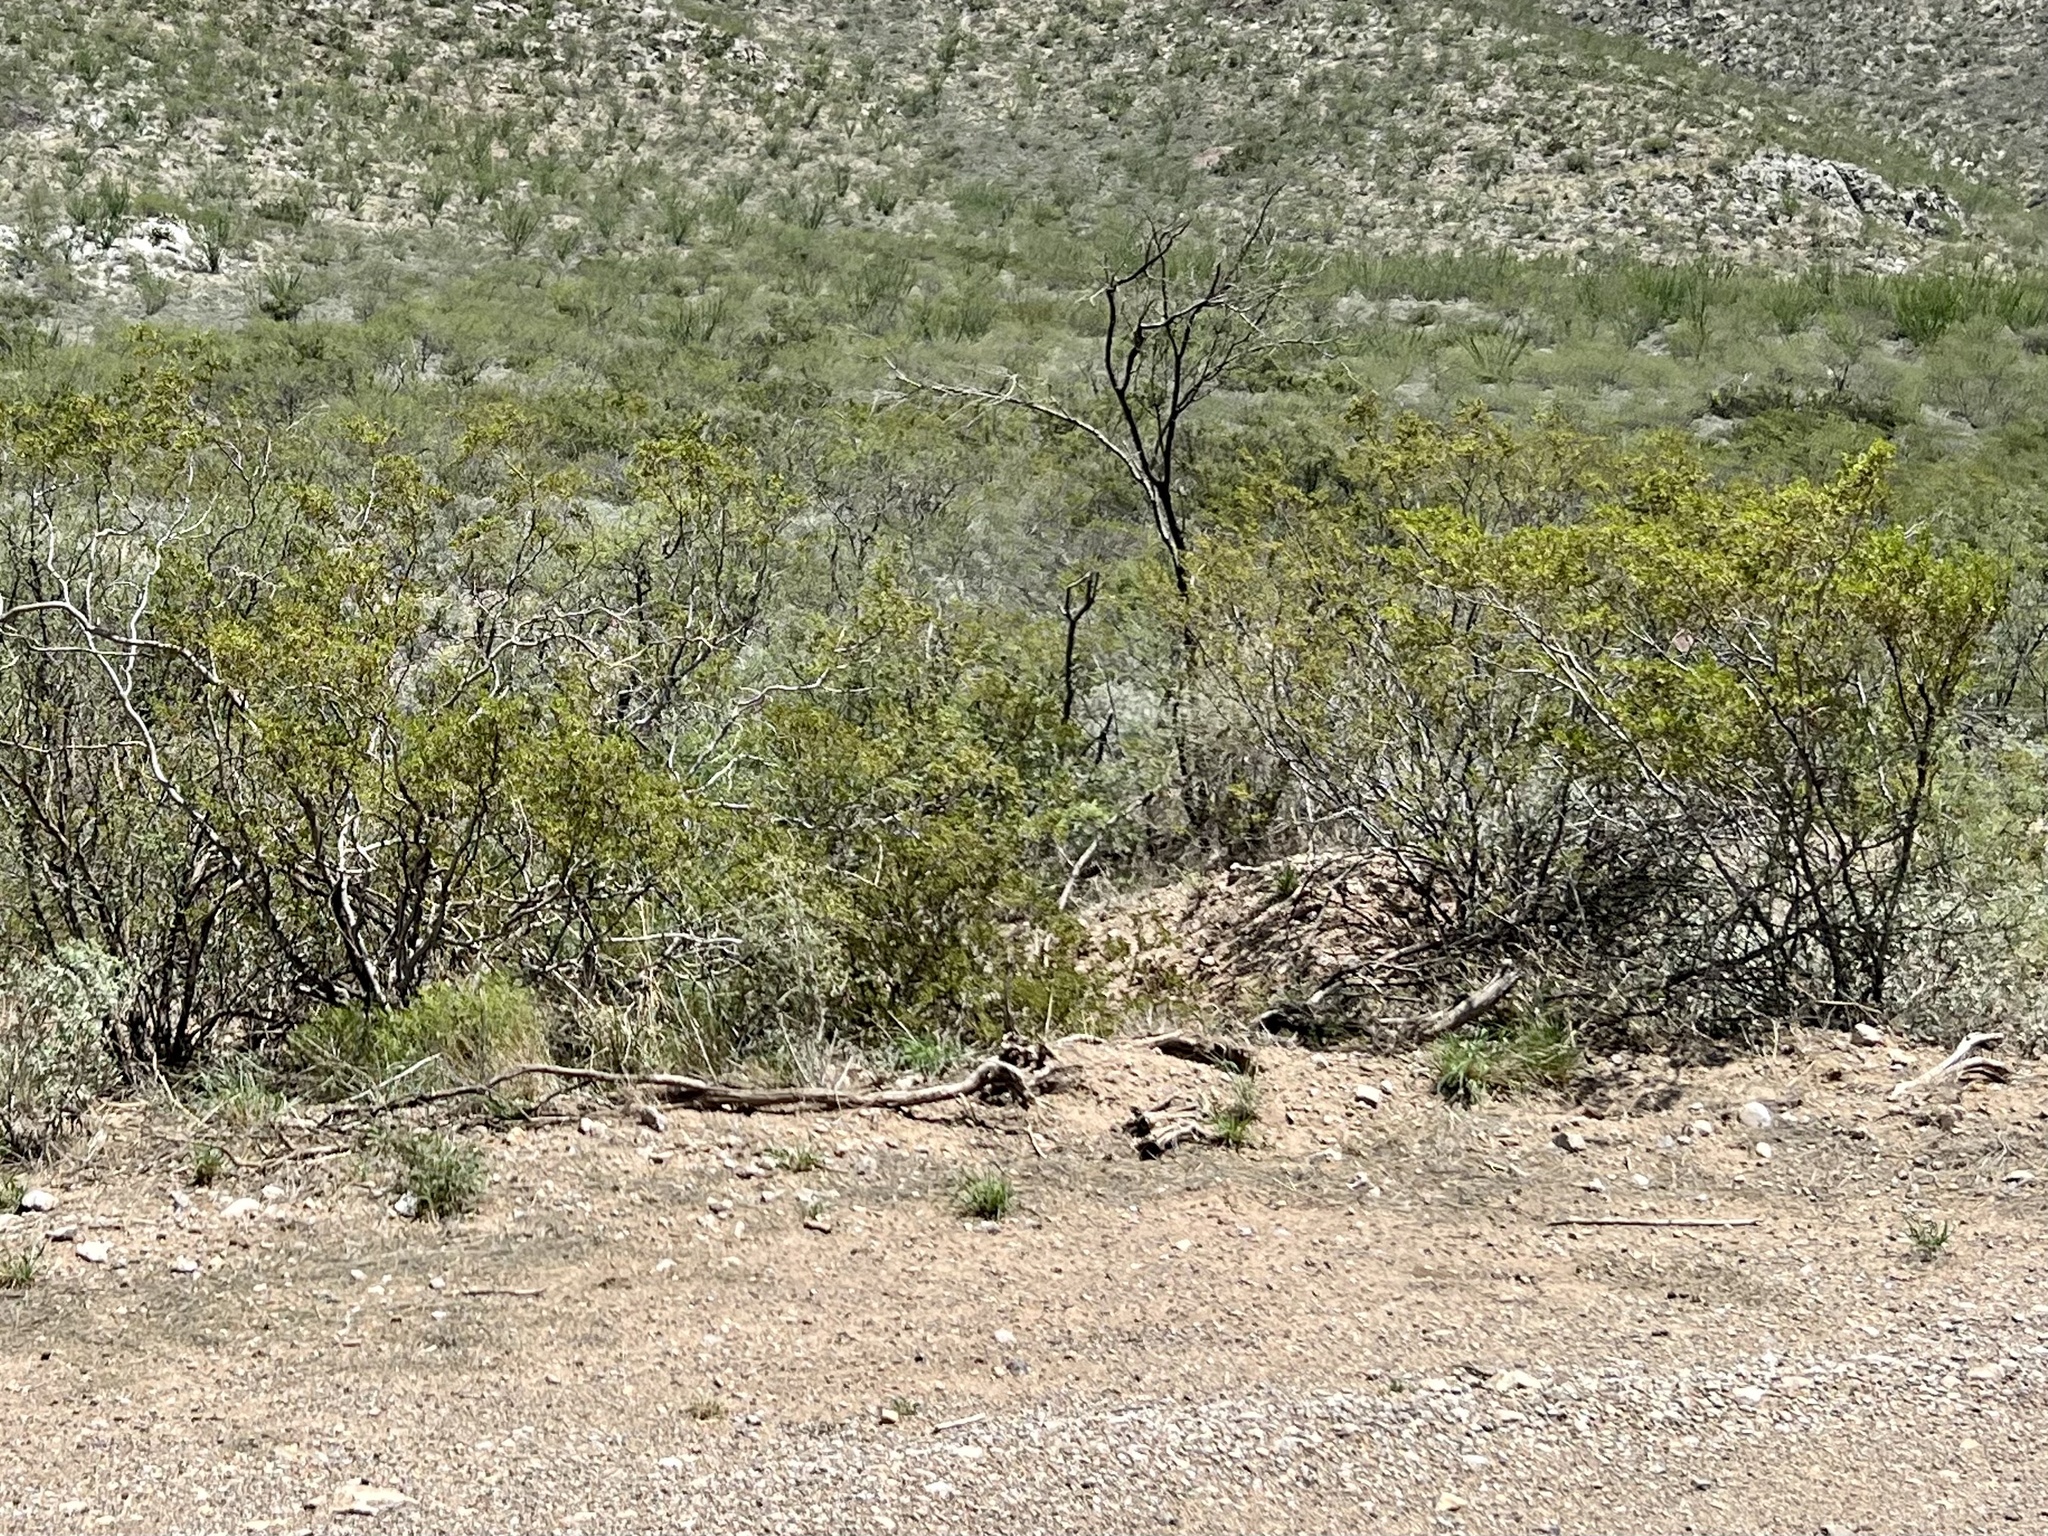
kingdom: Plantae
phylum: Tracheophyta
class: Magnoliopsida
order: Zygophyllales
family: Zygophyllaceae
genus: Larrea
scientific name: Larrea tridentata
